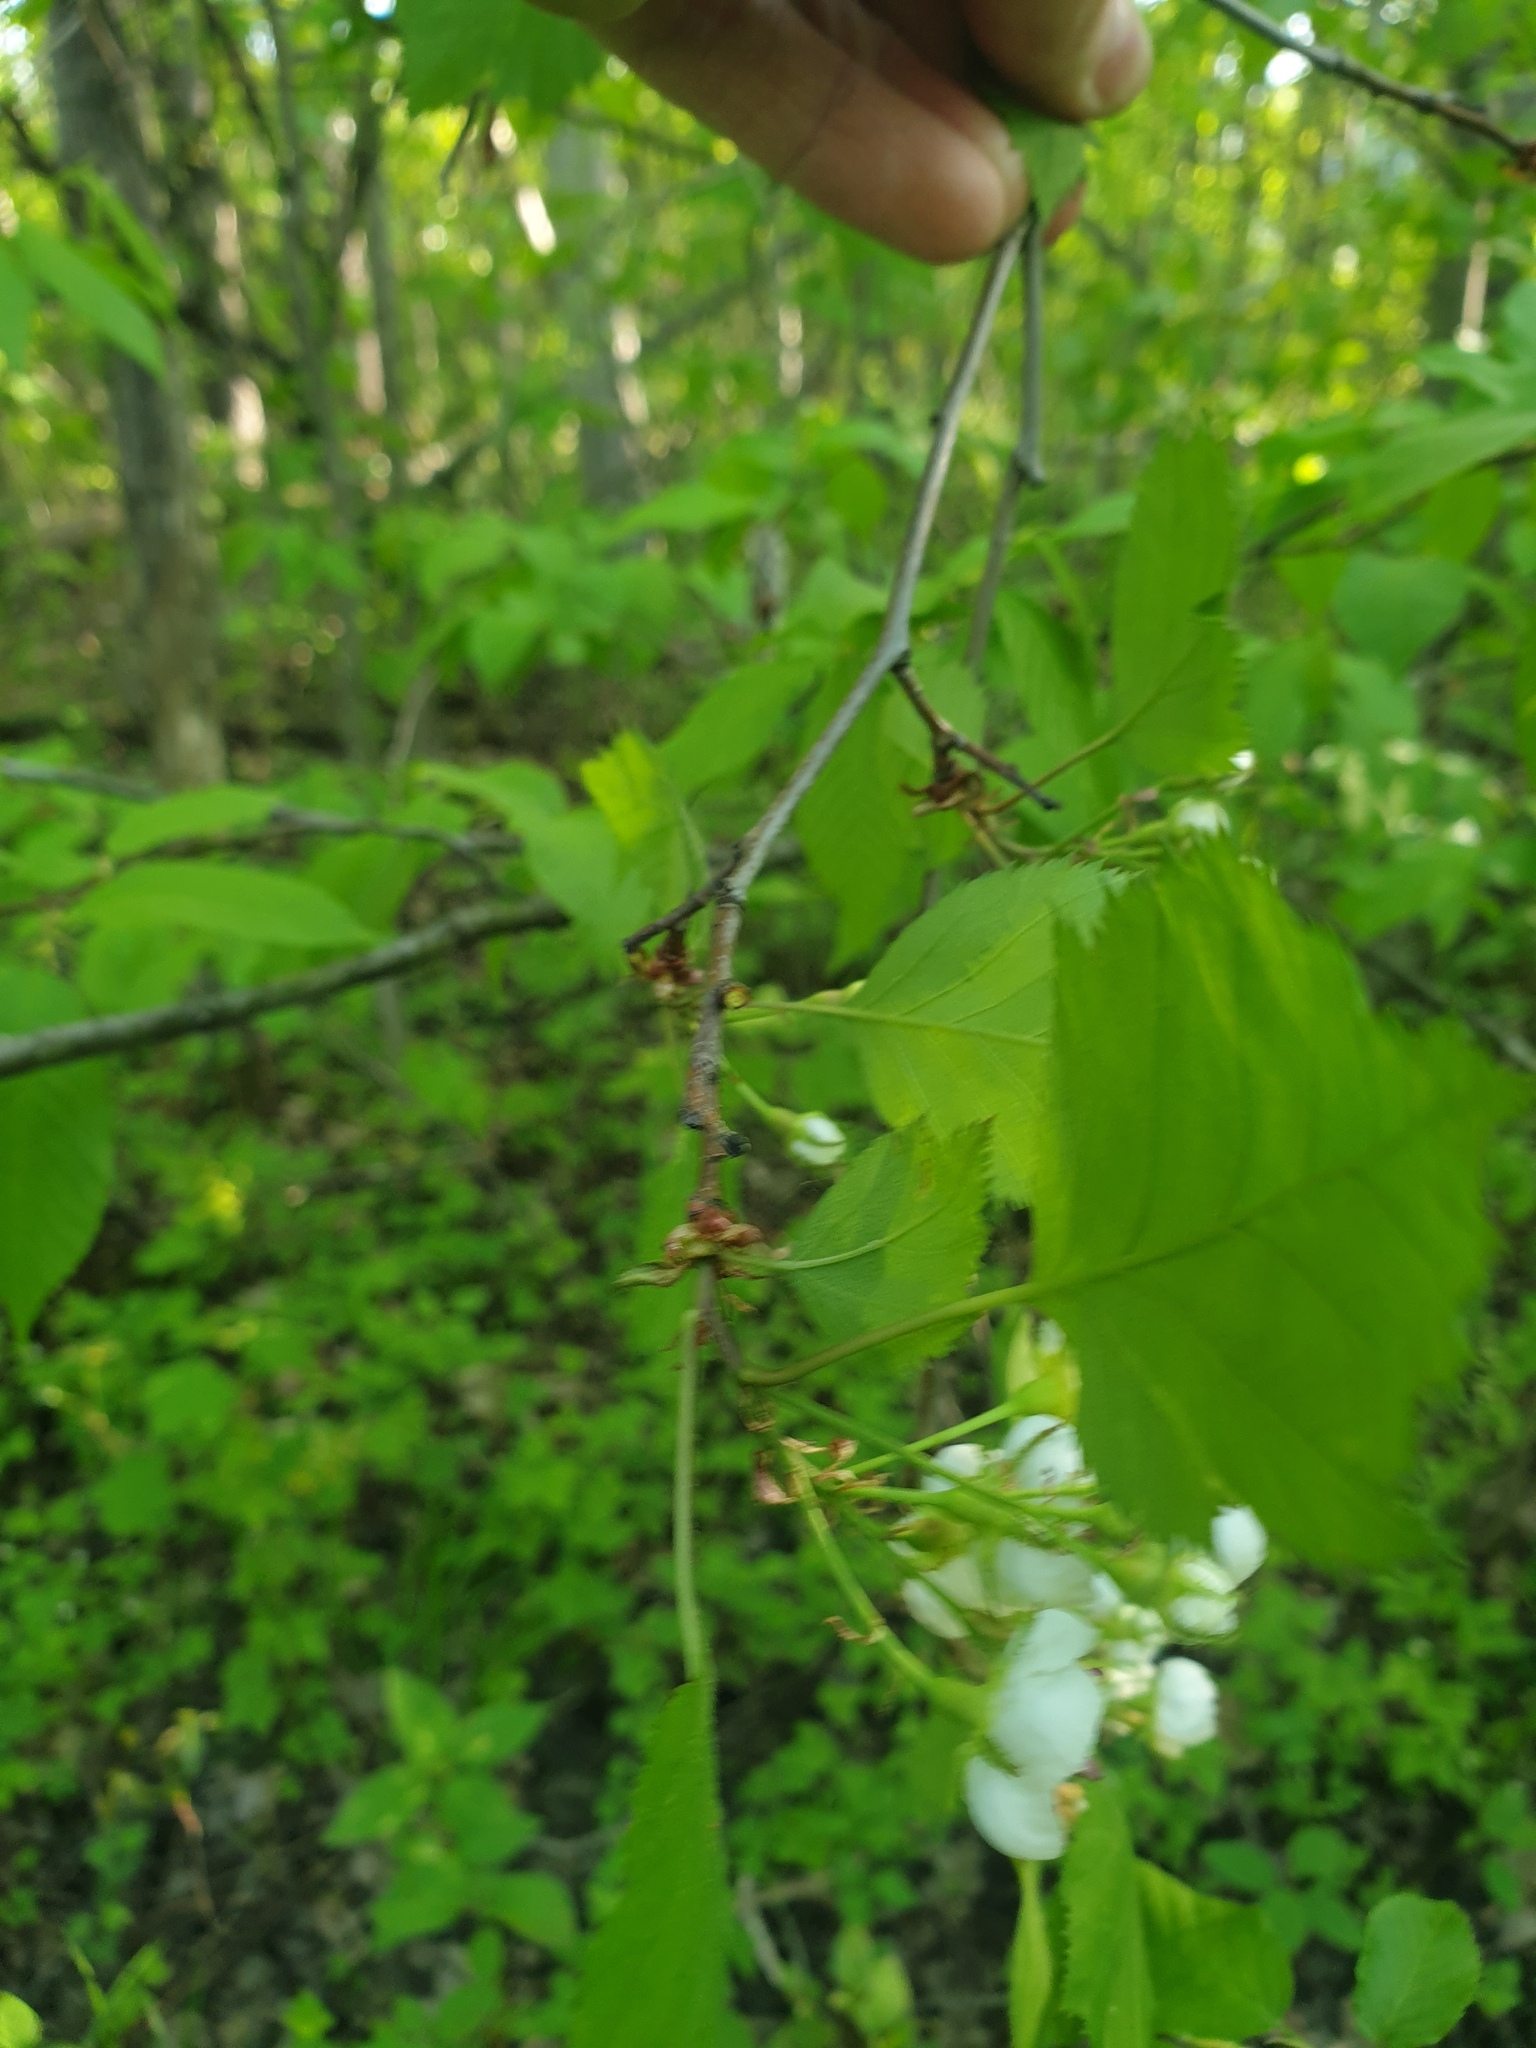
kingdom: Plantae
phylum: Tracheophyta
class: Magnoliopsida
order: Rosales
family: Rosaceae
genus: Crataegus
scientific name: Crataegus holmesiana
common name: Holmes' hawthorn
